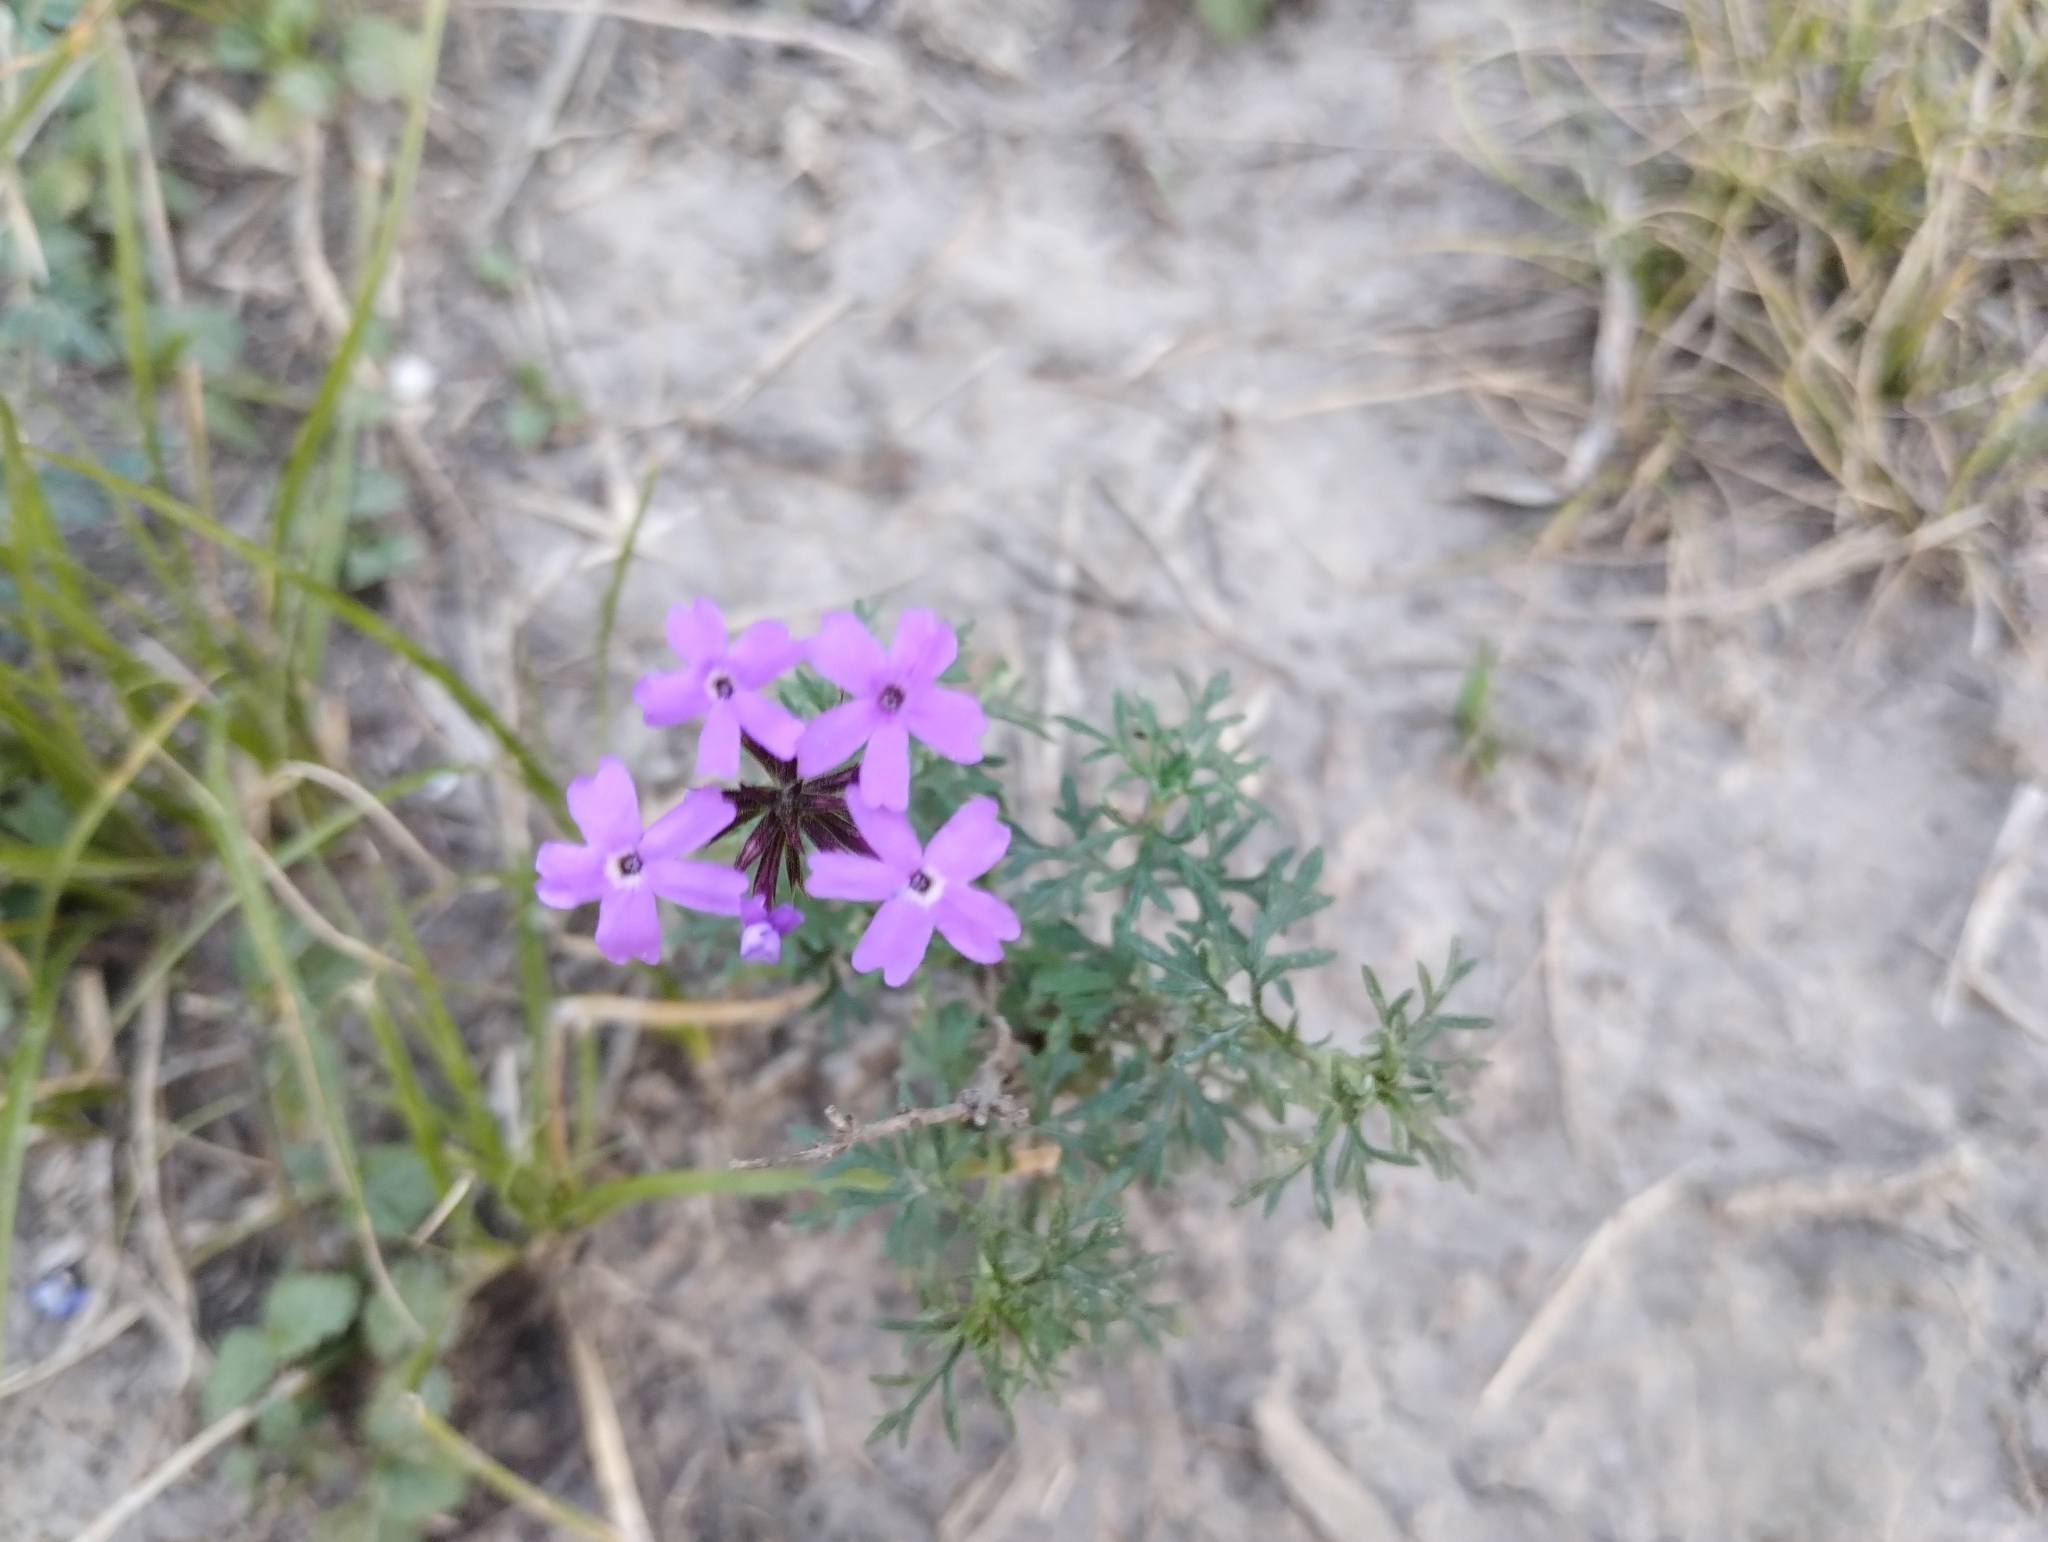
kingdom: Plantae
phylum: Tracheophyta
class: Magnoliopsida
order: Lamiales
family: Verbenaceae
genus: Verbena
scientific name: Verbena aristigera
